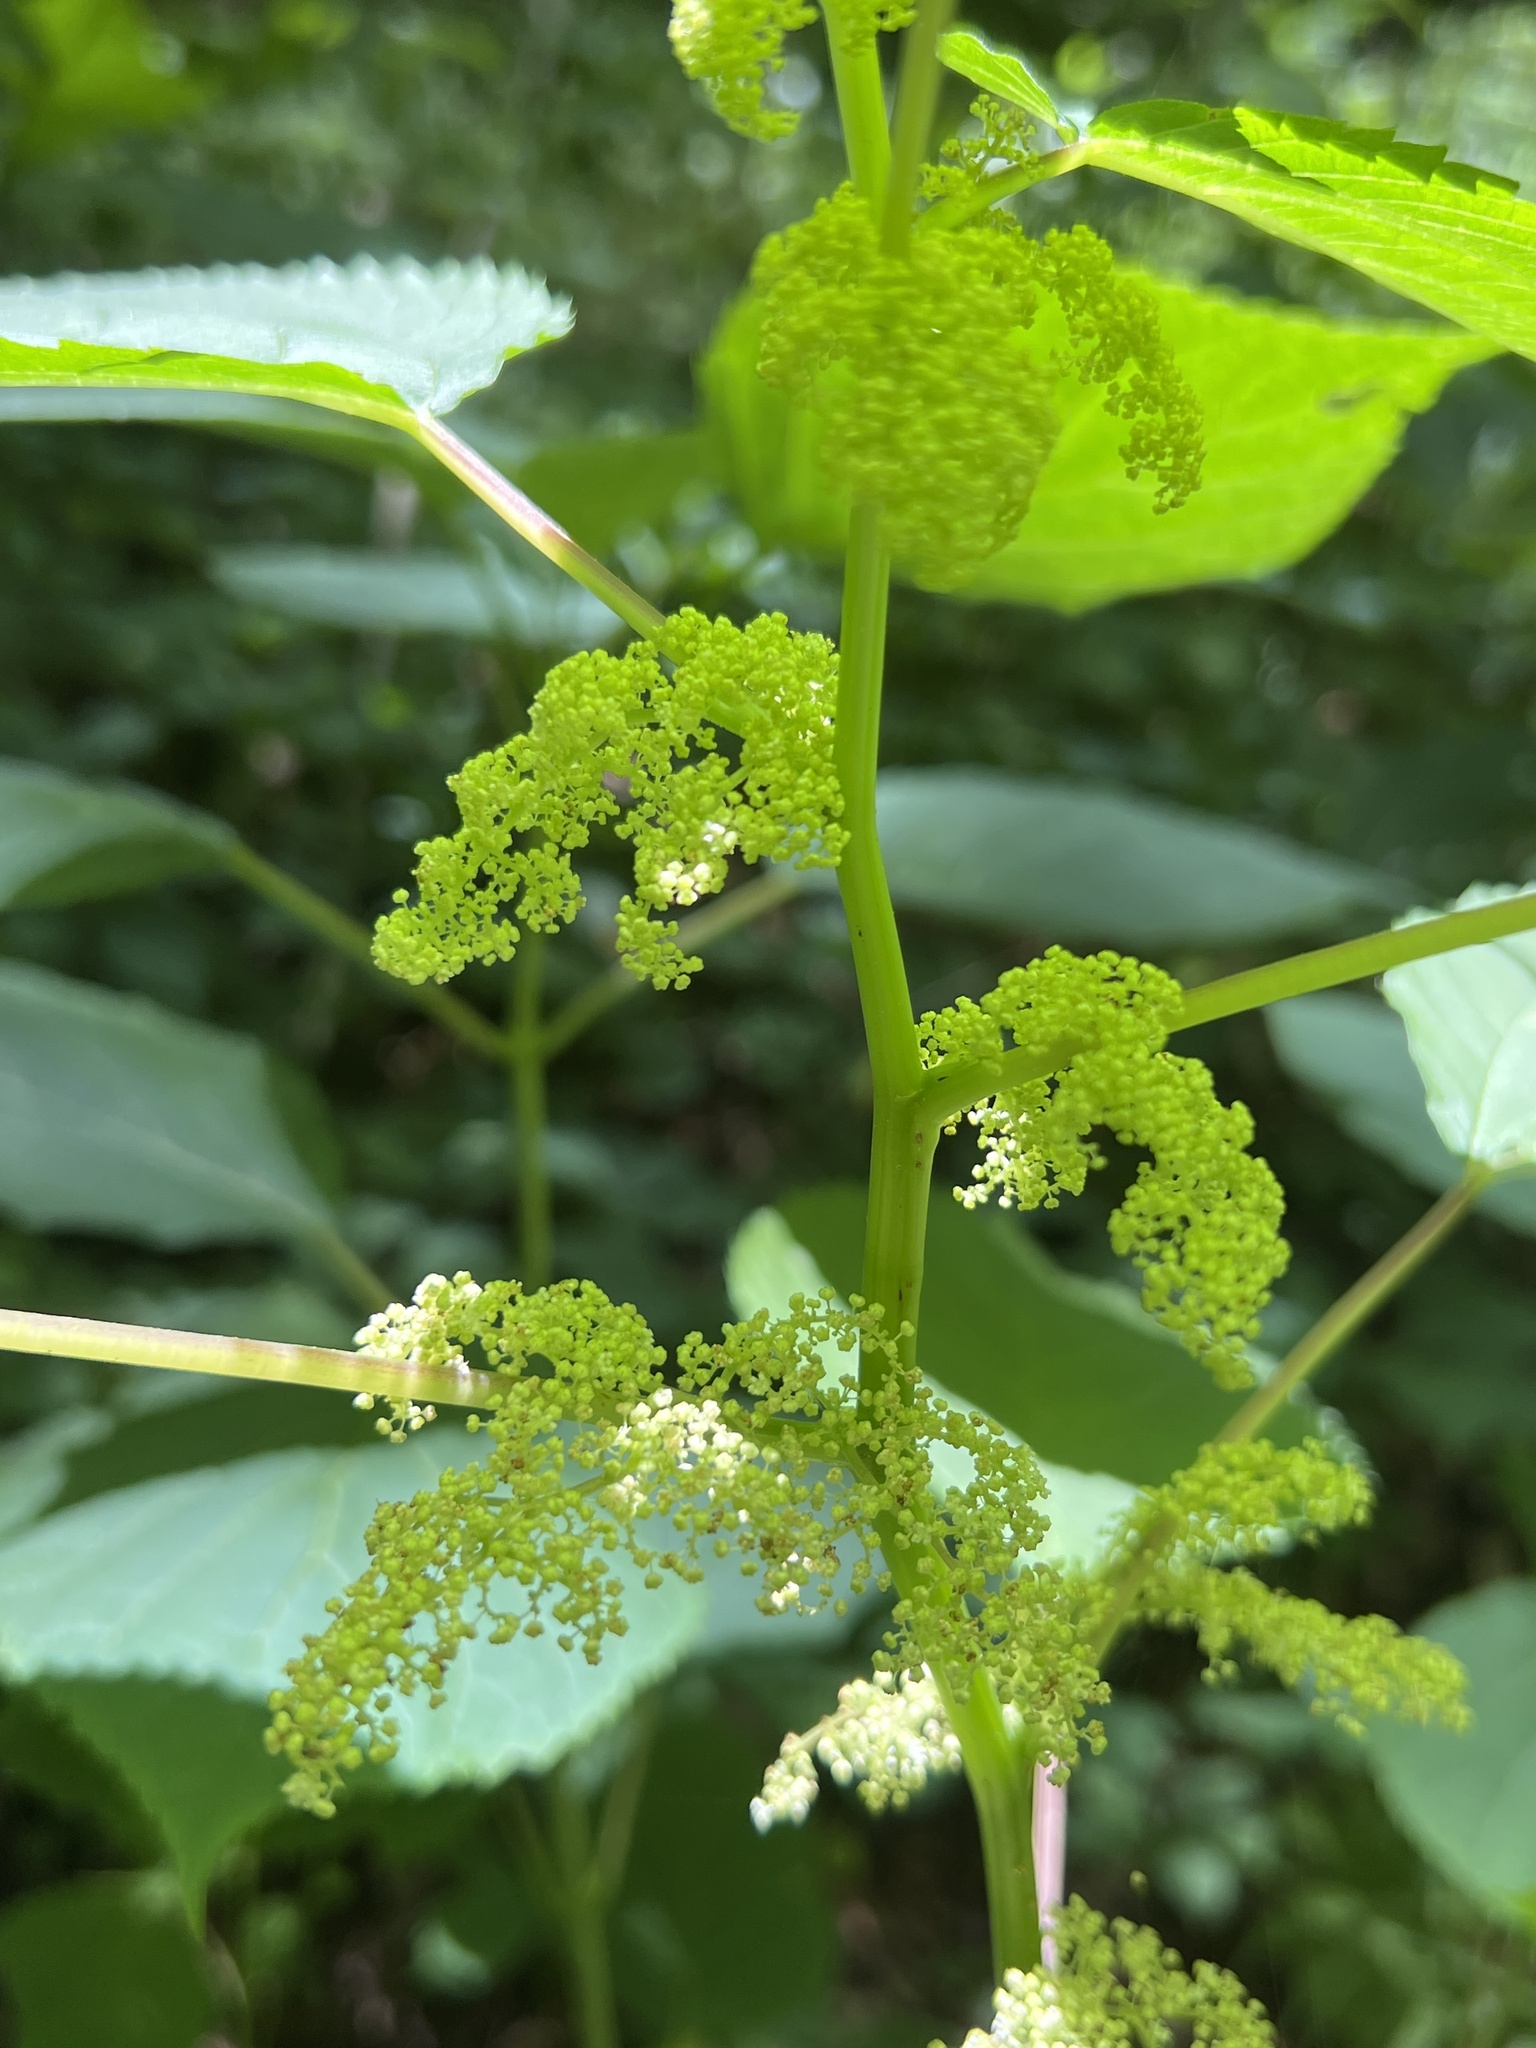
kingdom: Plantae
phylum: Tracheophyta
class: Magnoliopsida
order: Rosales
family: Urticaceae
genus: Laportea
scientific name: Laportea canadensis
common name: Canada nettle
